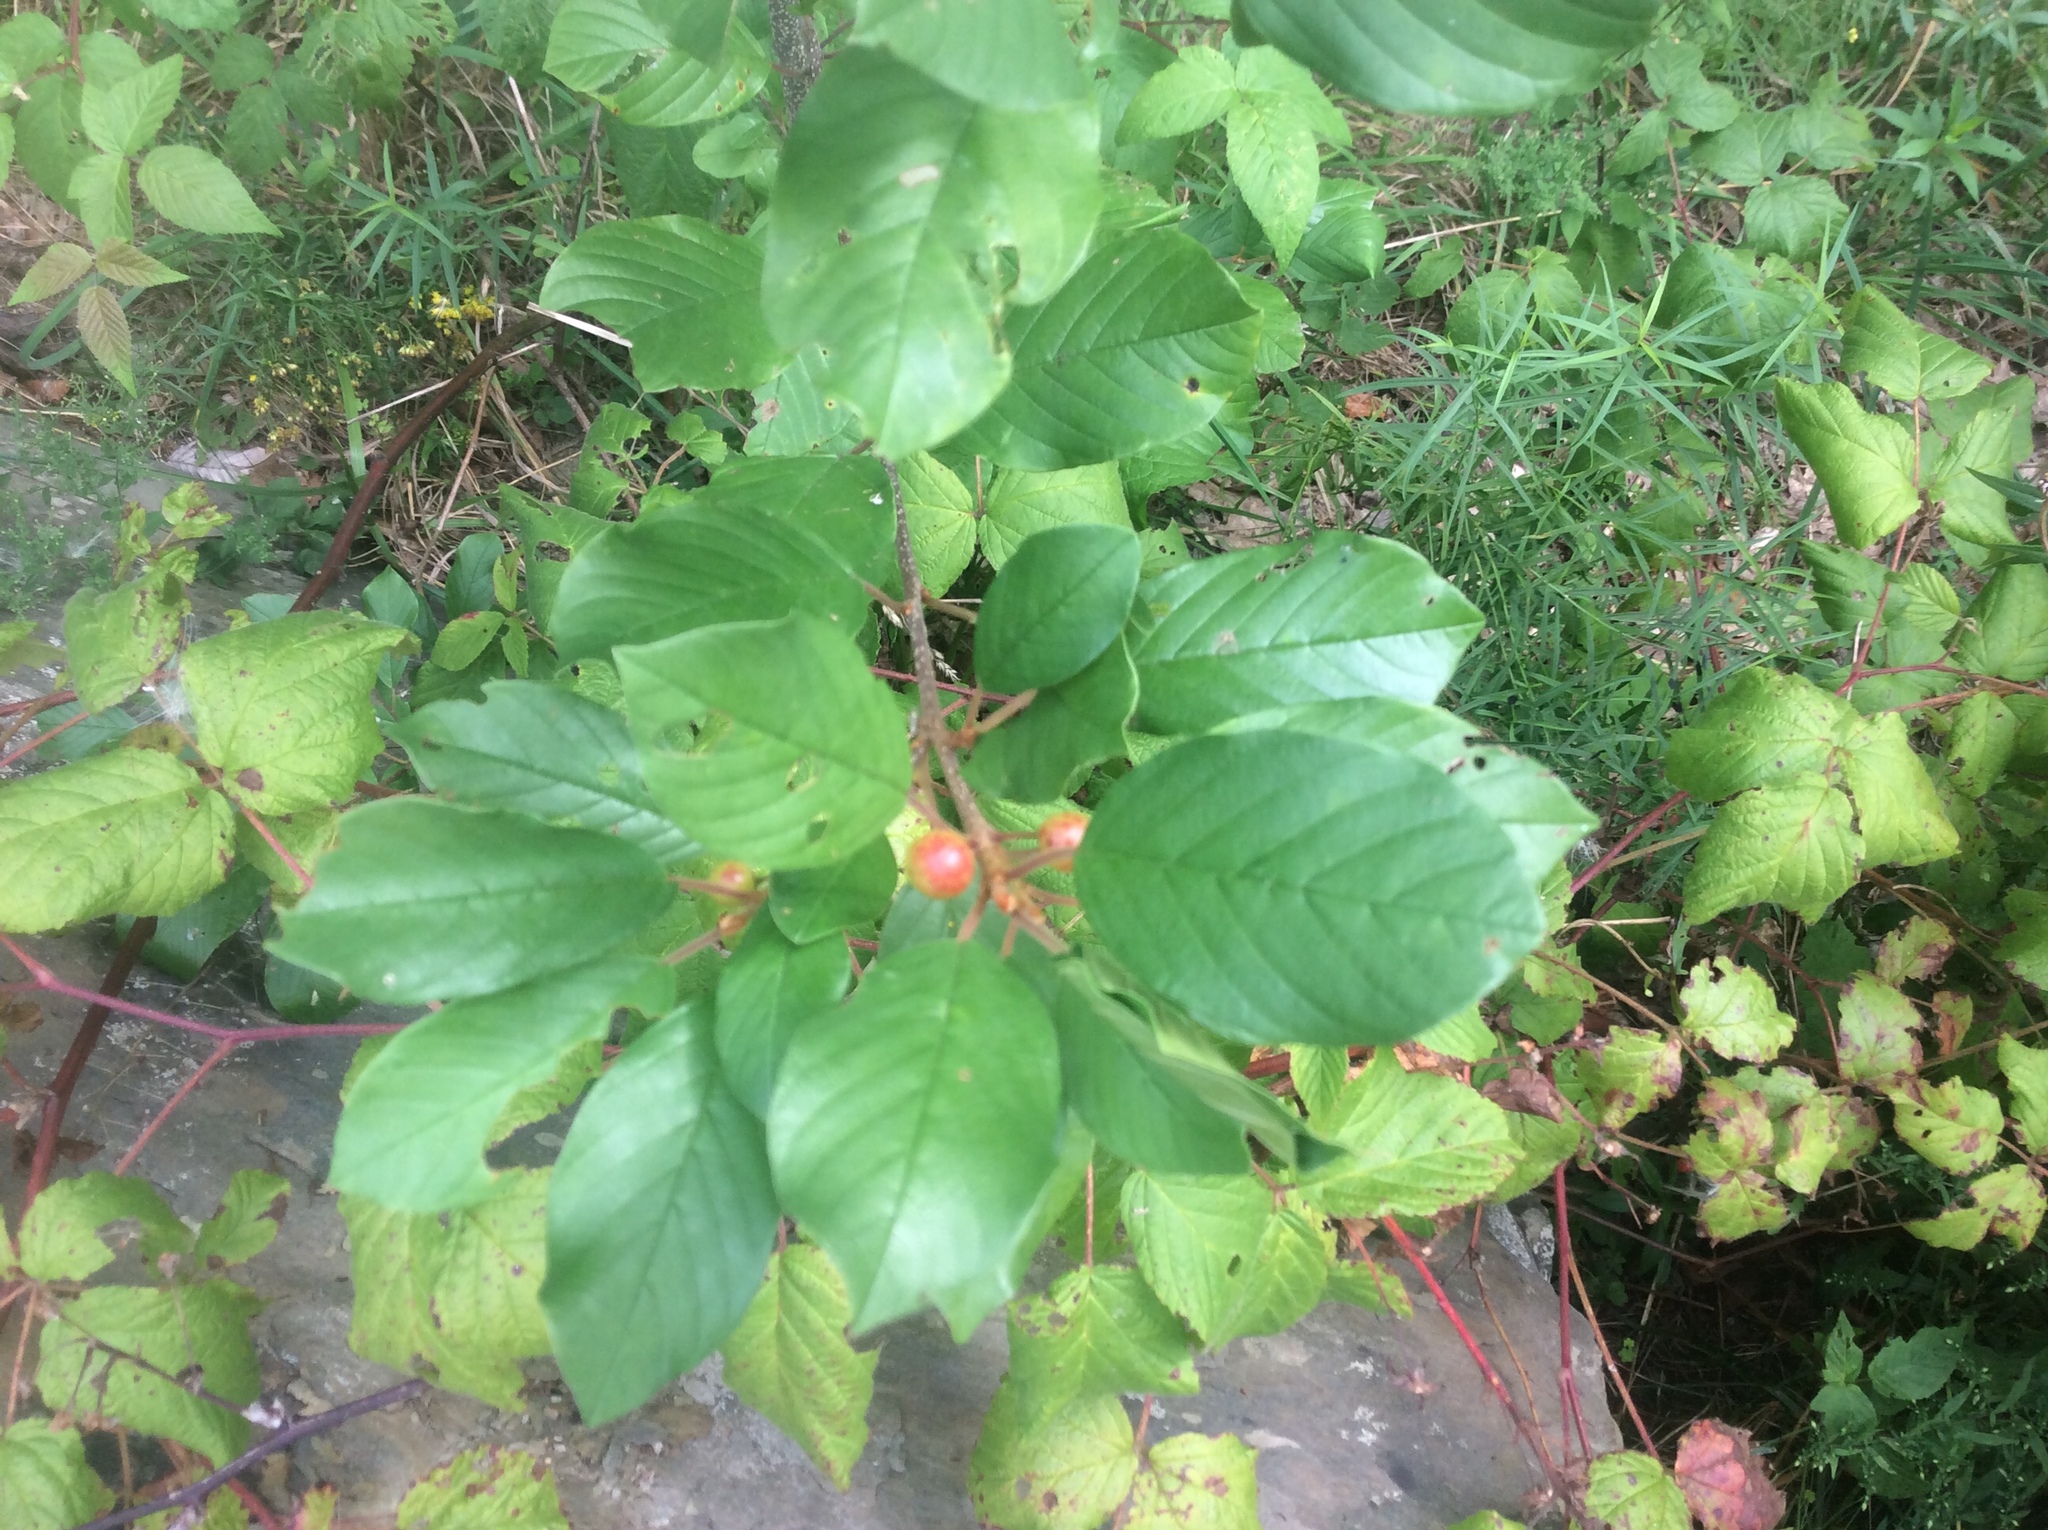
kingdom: Plantae
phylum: Tracheophyta
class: Magnoliopsida
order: Rosales
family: Rhamnaceae
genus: Frangula
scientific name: Frangula alnus
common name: Alder buckthorn
